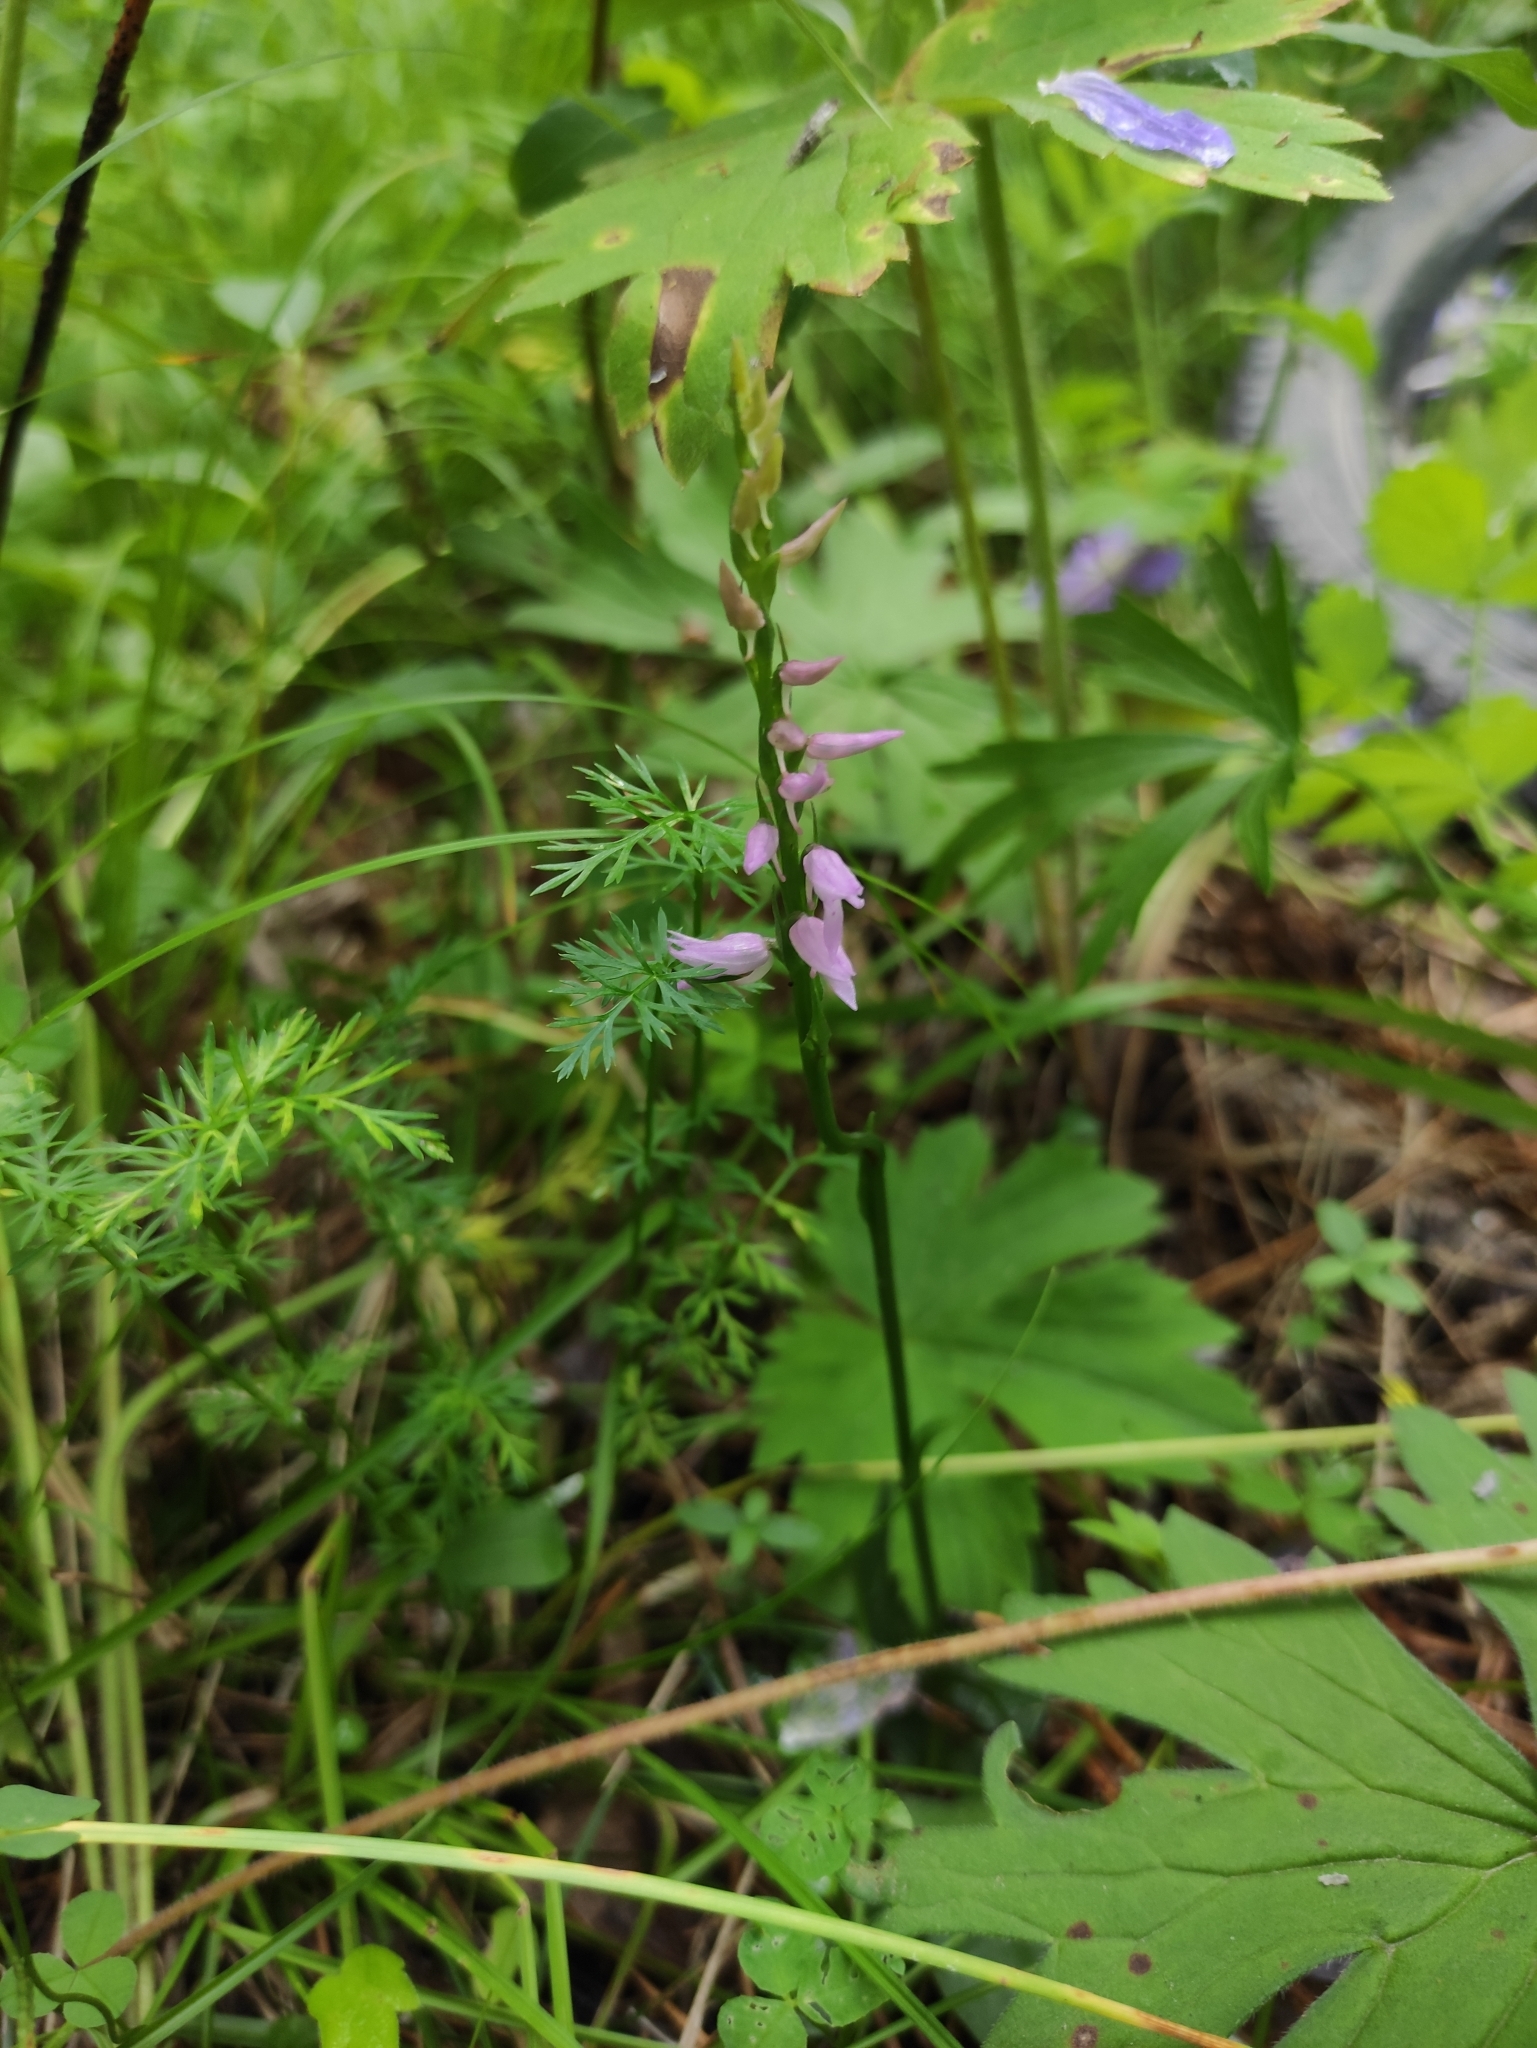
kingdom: Plantae
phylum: Tracheophyta
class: Liliopsida
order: Asparagales
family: Orchidaceae
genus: Hemipilia
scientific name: Hemipilia cucullata
